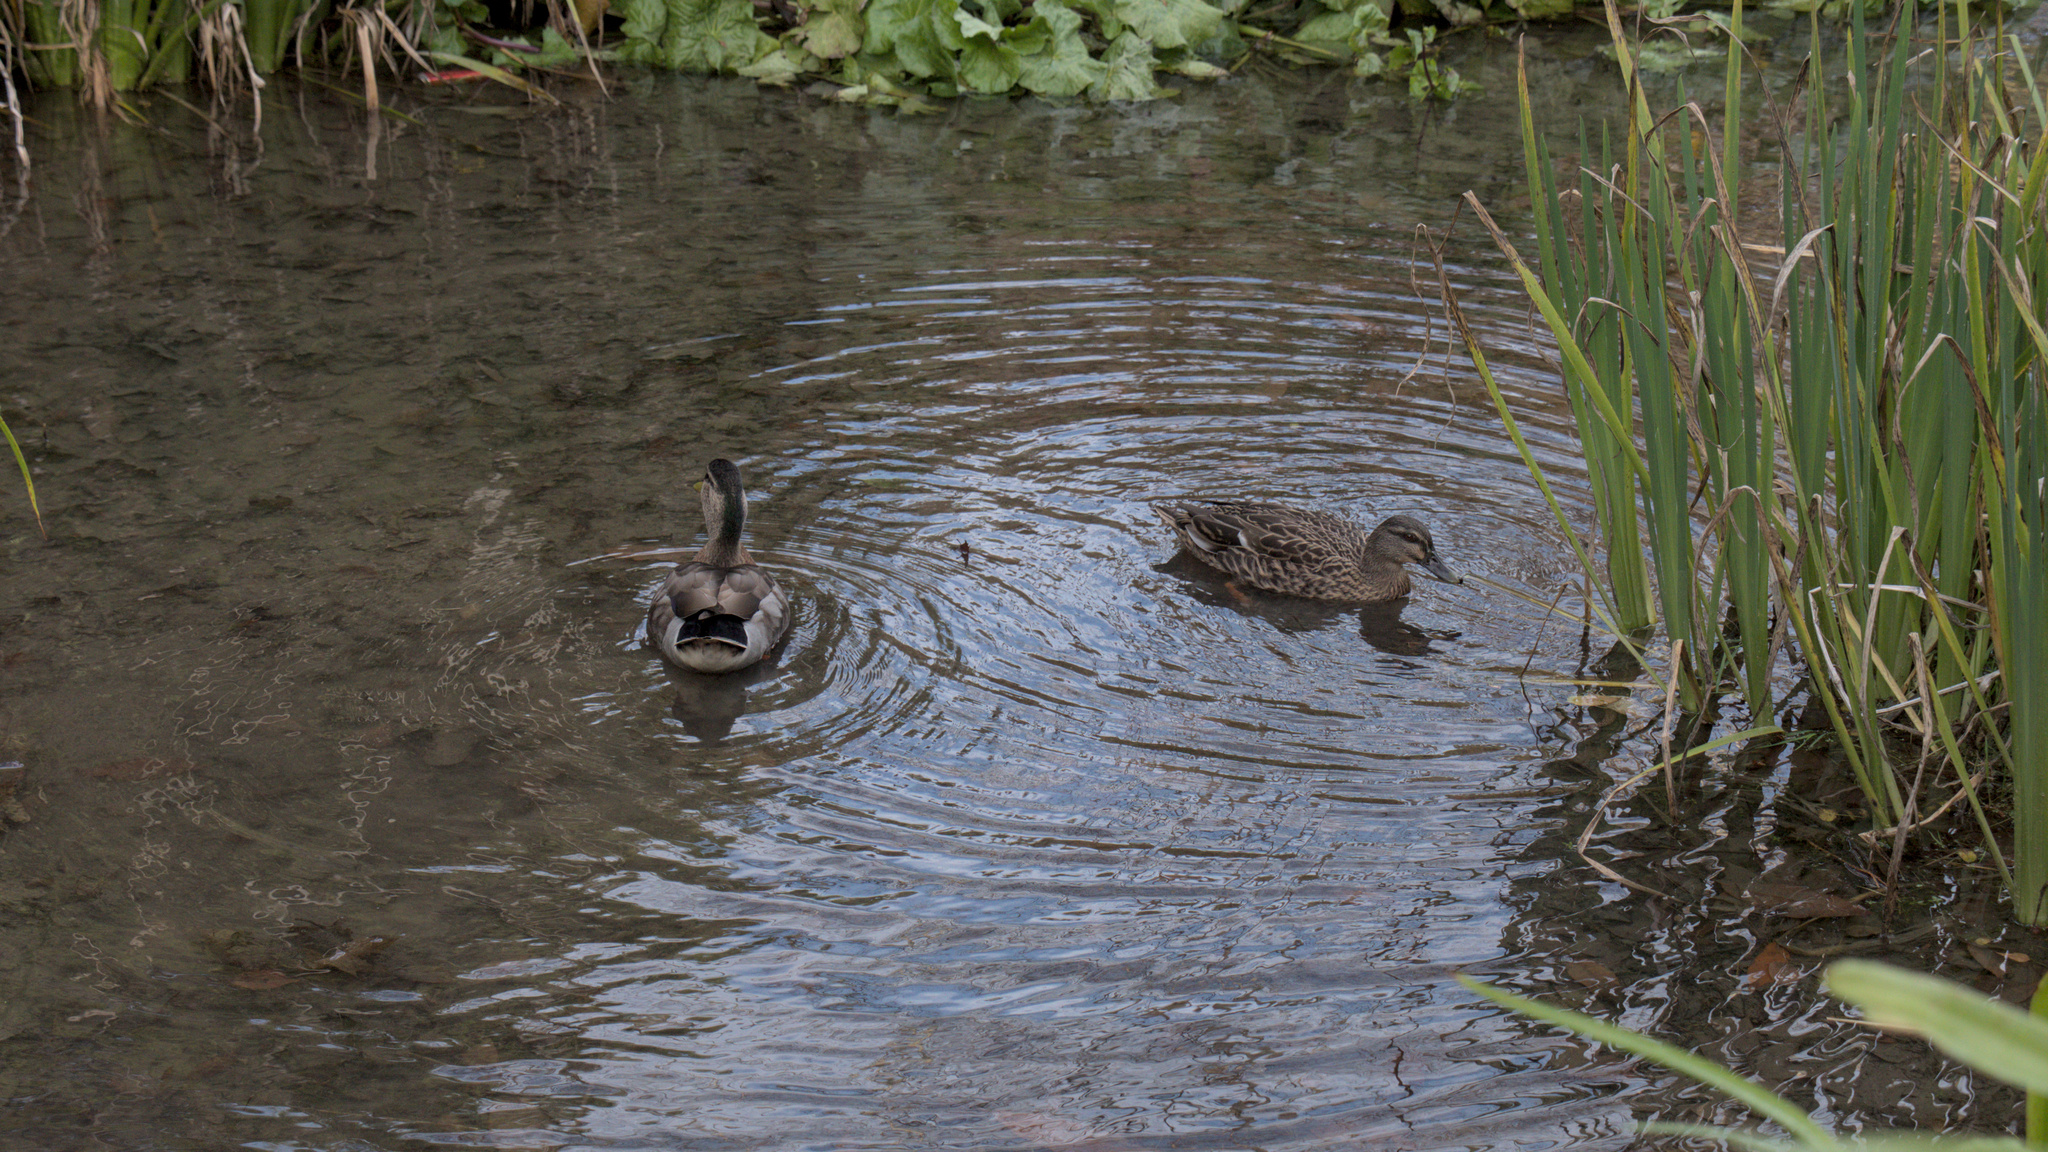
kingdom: Animalia
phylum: Chordata
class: Aves
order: Anseriformes
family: Anatidae
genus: Anas
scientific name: Anas
